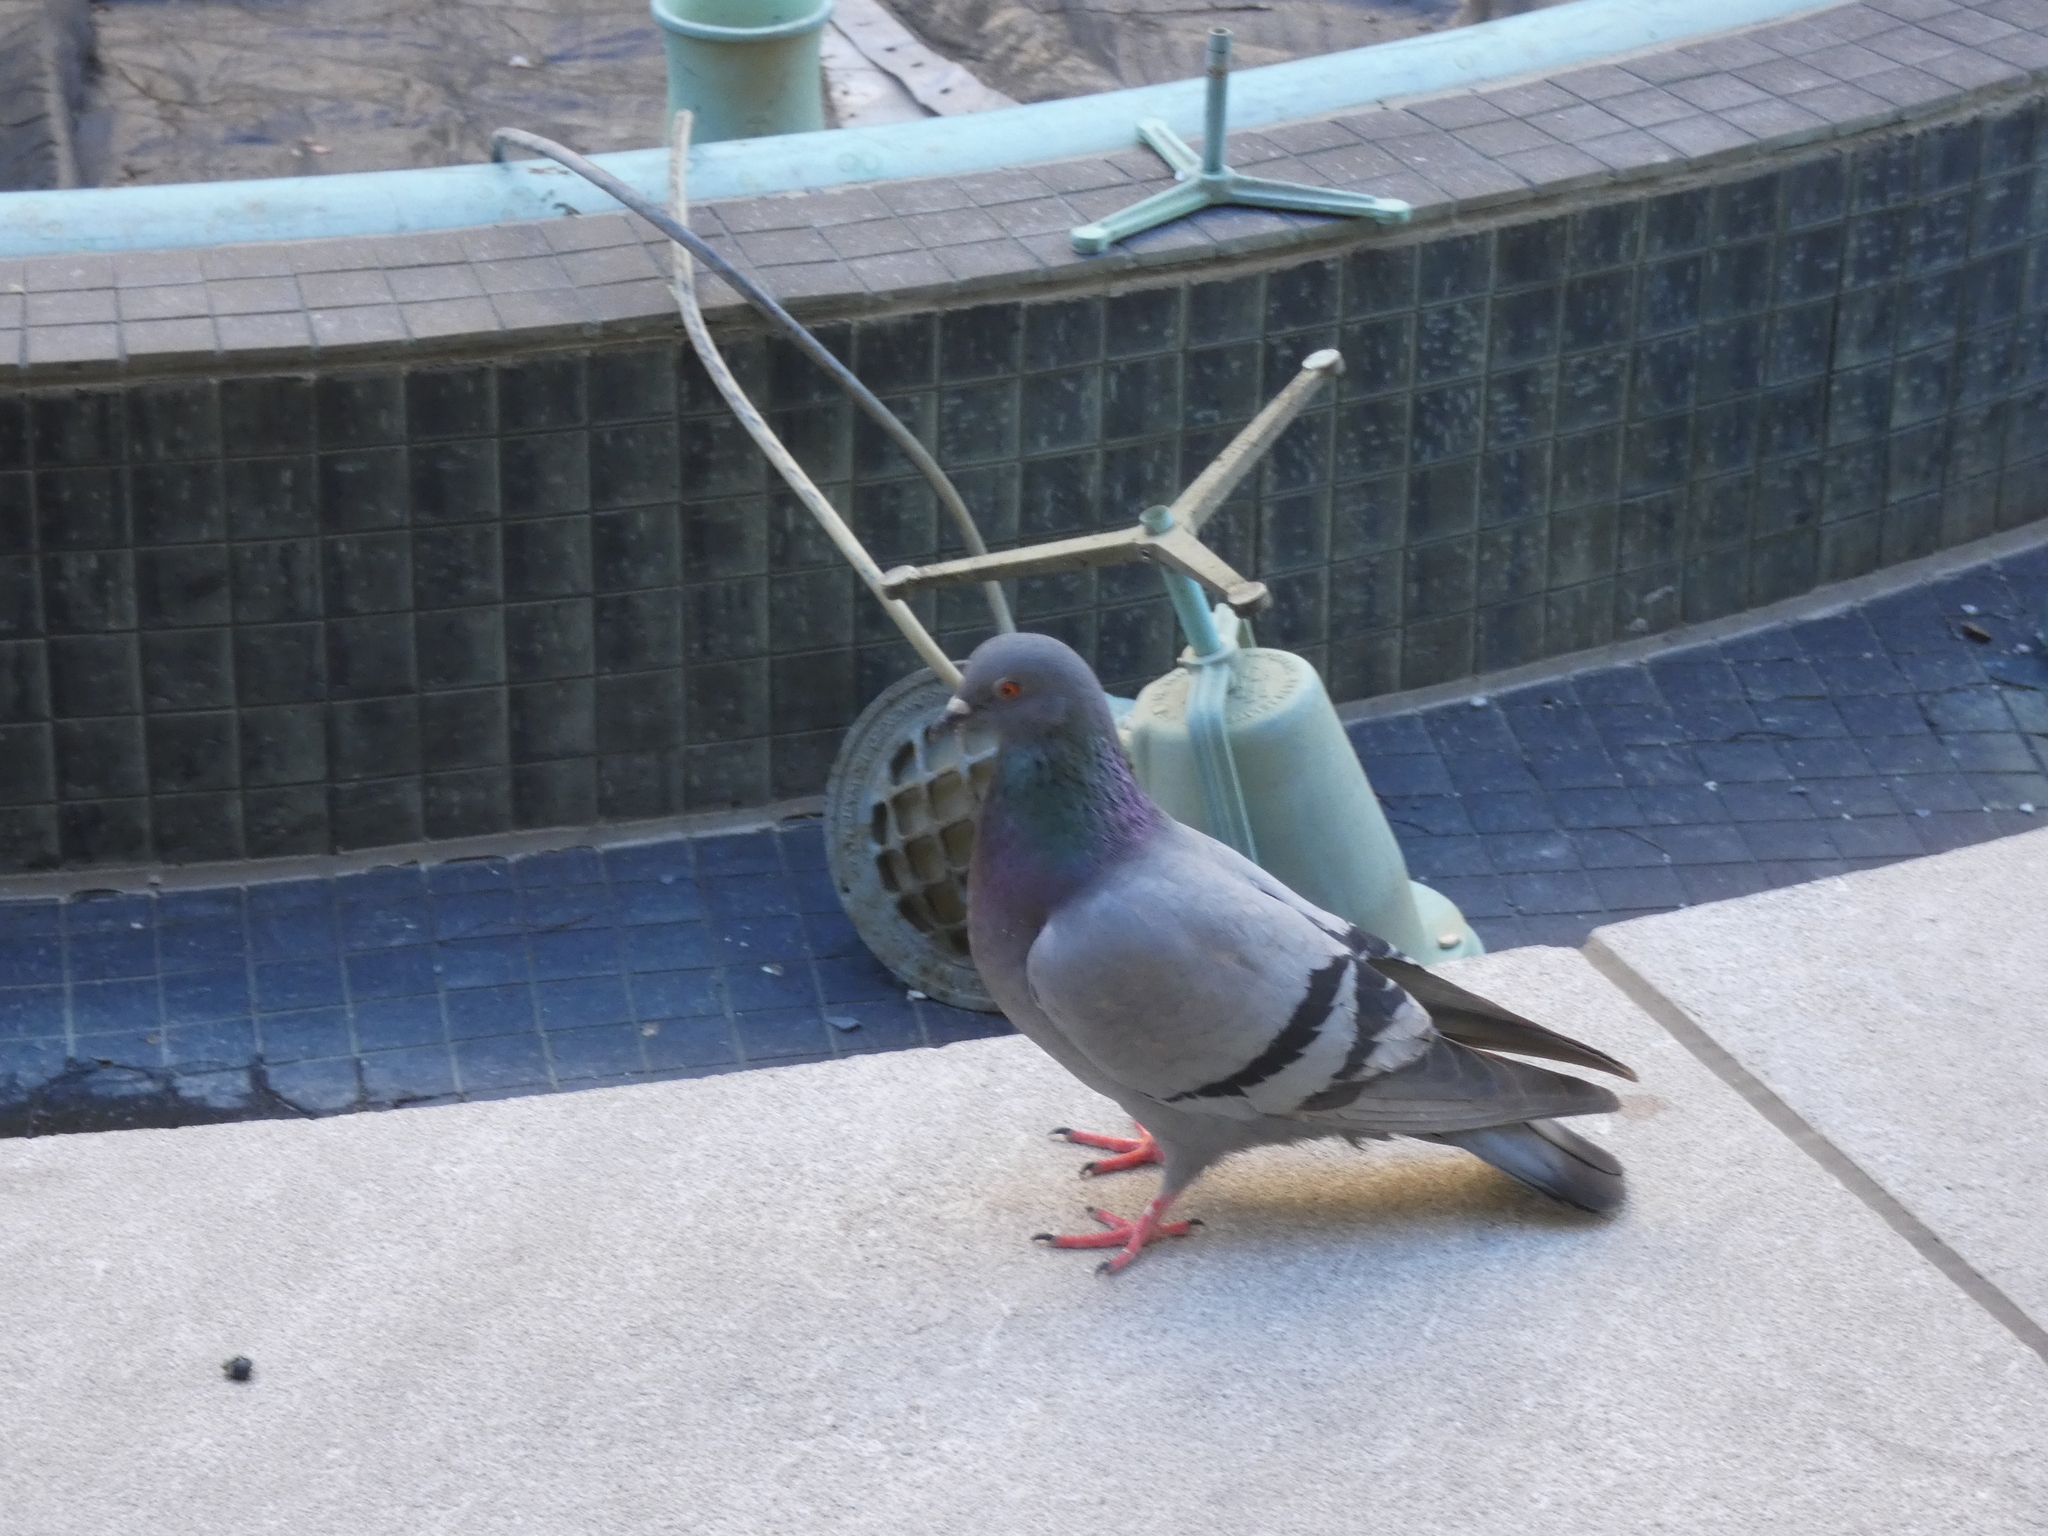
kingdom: Animalia
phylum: Chordata
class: Aves
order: Columbiformes
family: Columbidae
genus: Columba
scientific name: Columba livia
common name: Rock pigeon
